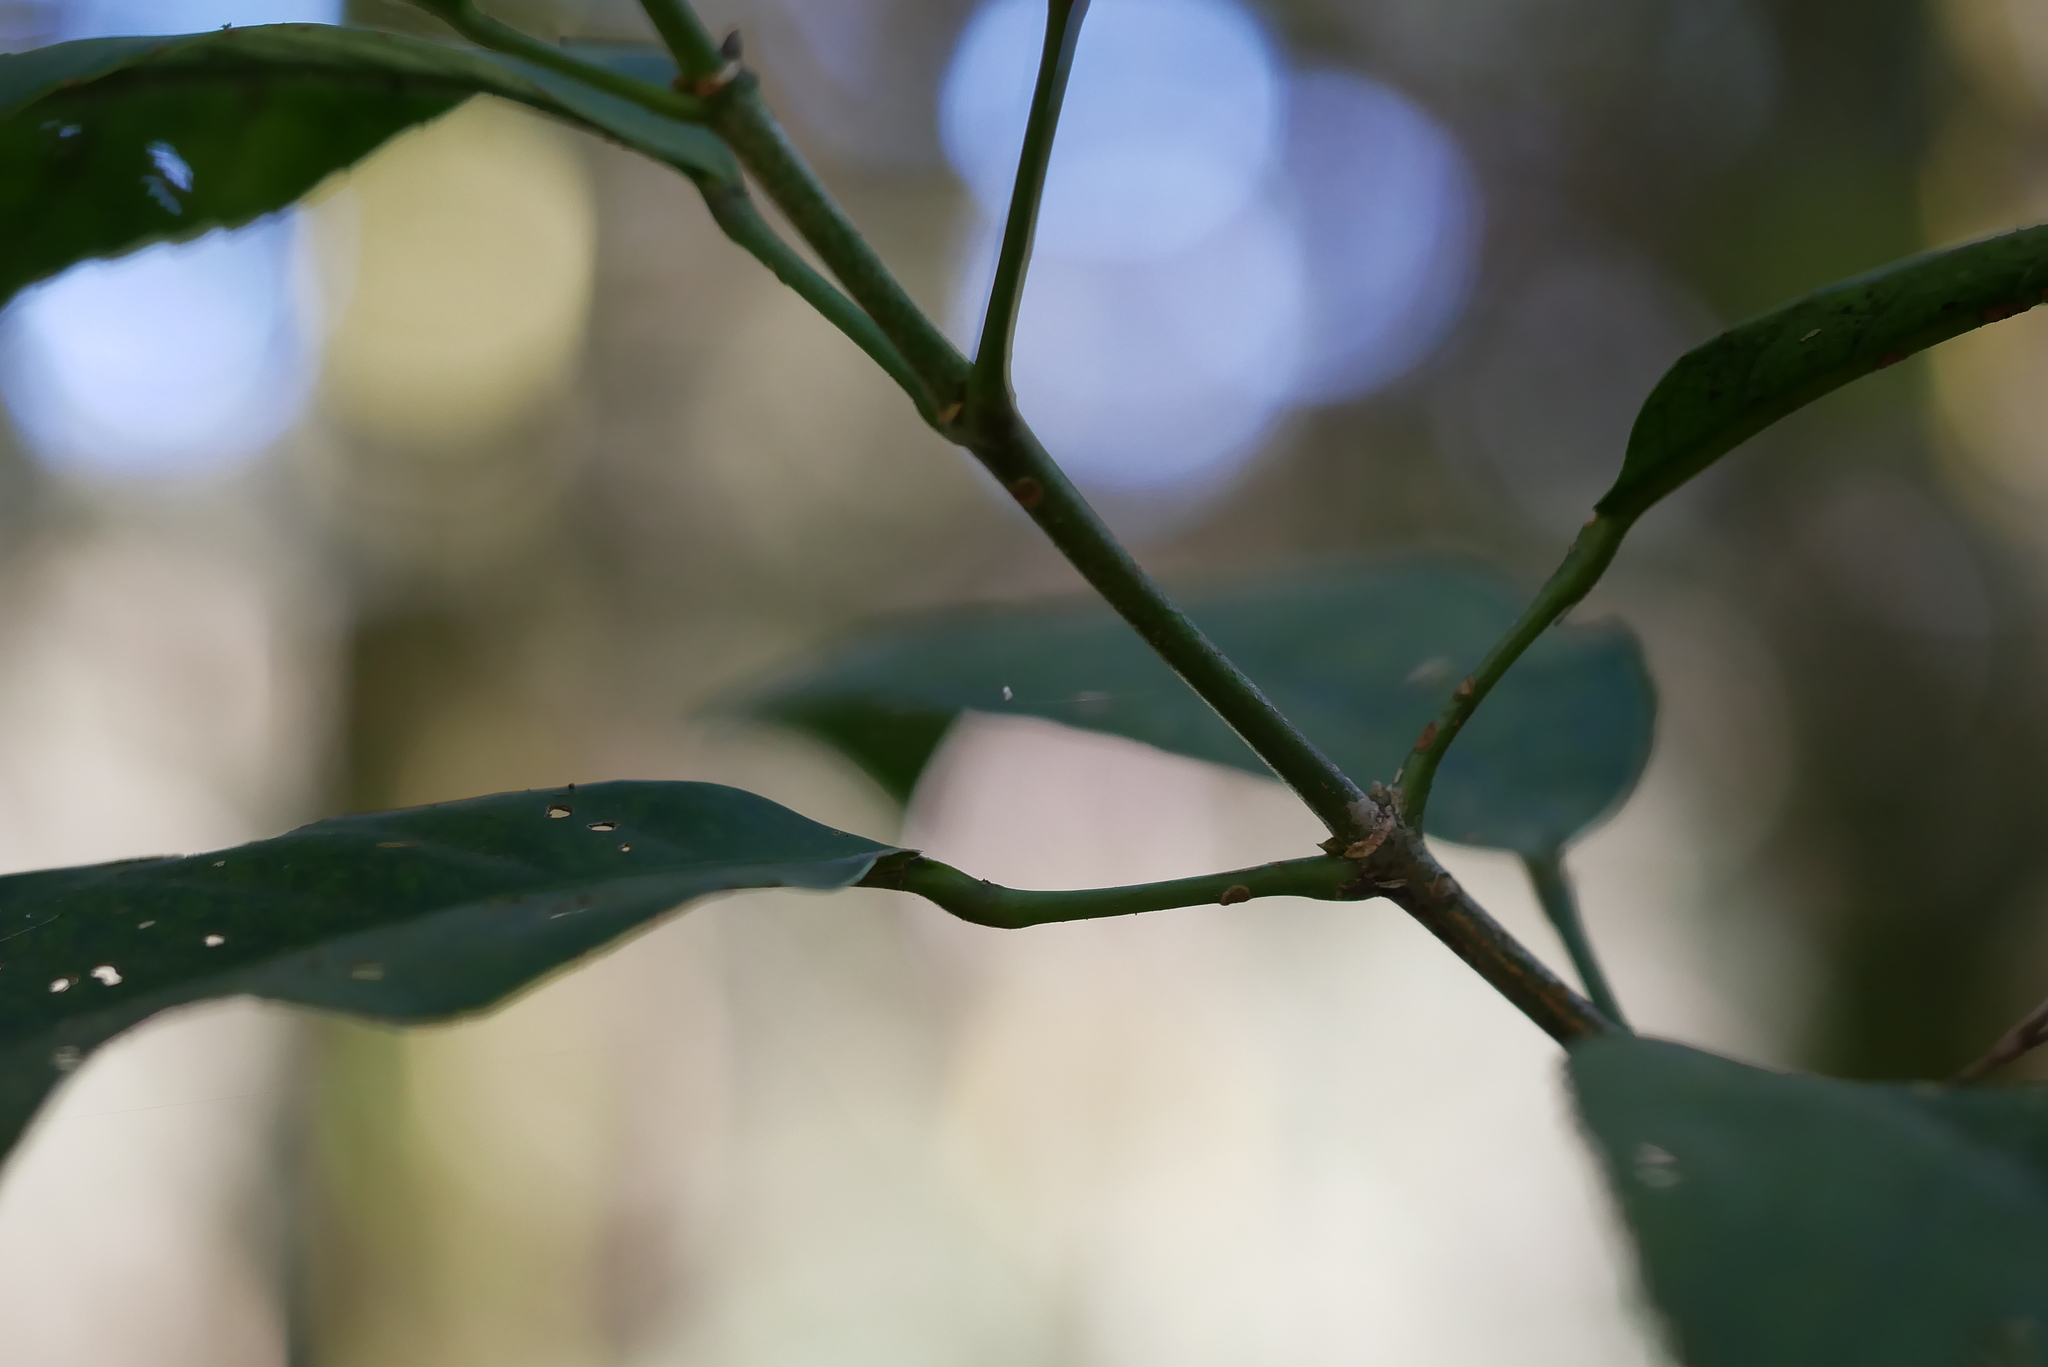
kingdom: Plantae
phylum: Tracheophyta
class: Magnoliopsida
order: Crossosomatales
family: Staphyleaceae
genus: Turpinia
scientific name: Turpinia formosana
